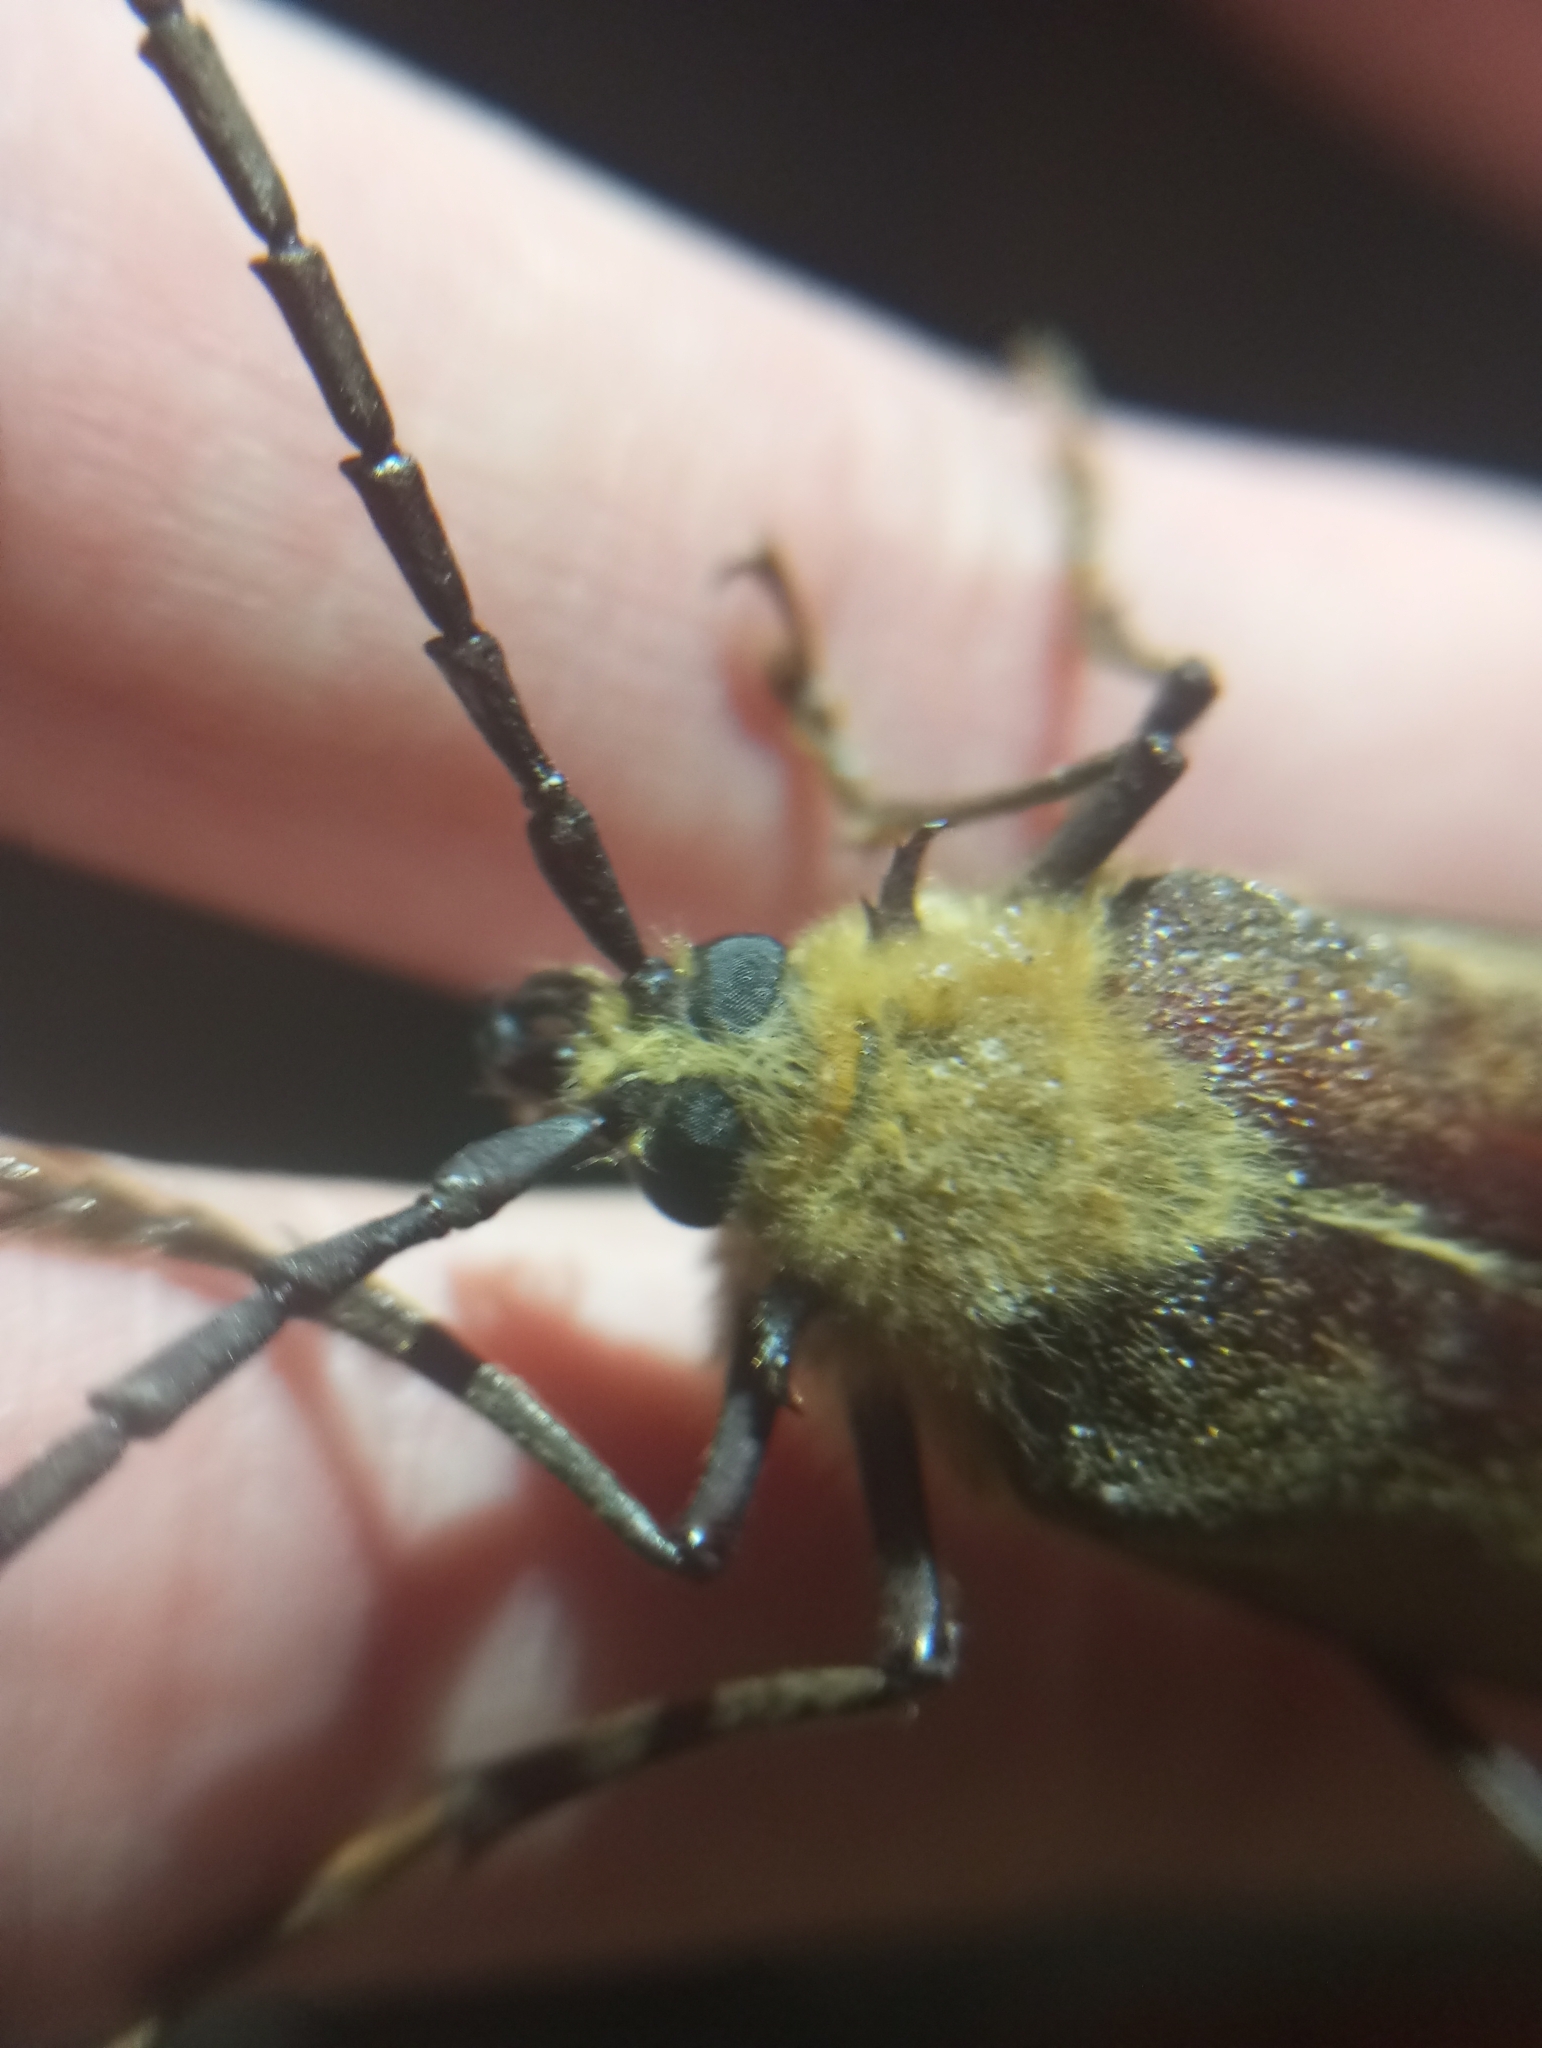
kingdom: Animalia
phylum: Arthropoda
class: Insecta
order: Coleoptera
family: Cerambycidae
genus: Acanthinodera
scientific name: Acanthinodera cumingii
